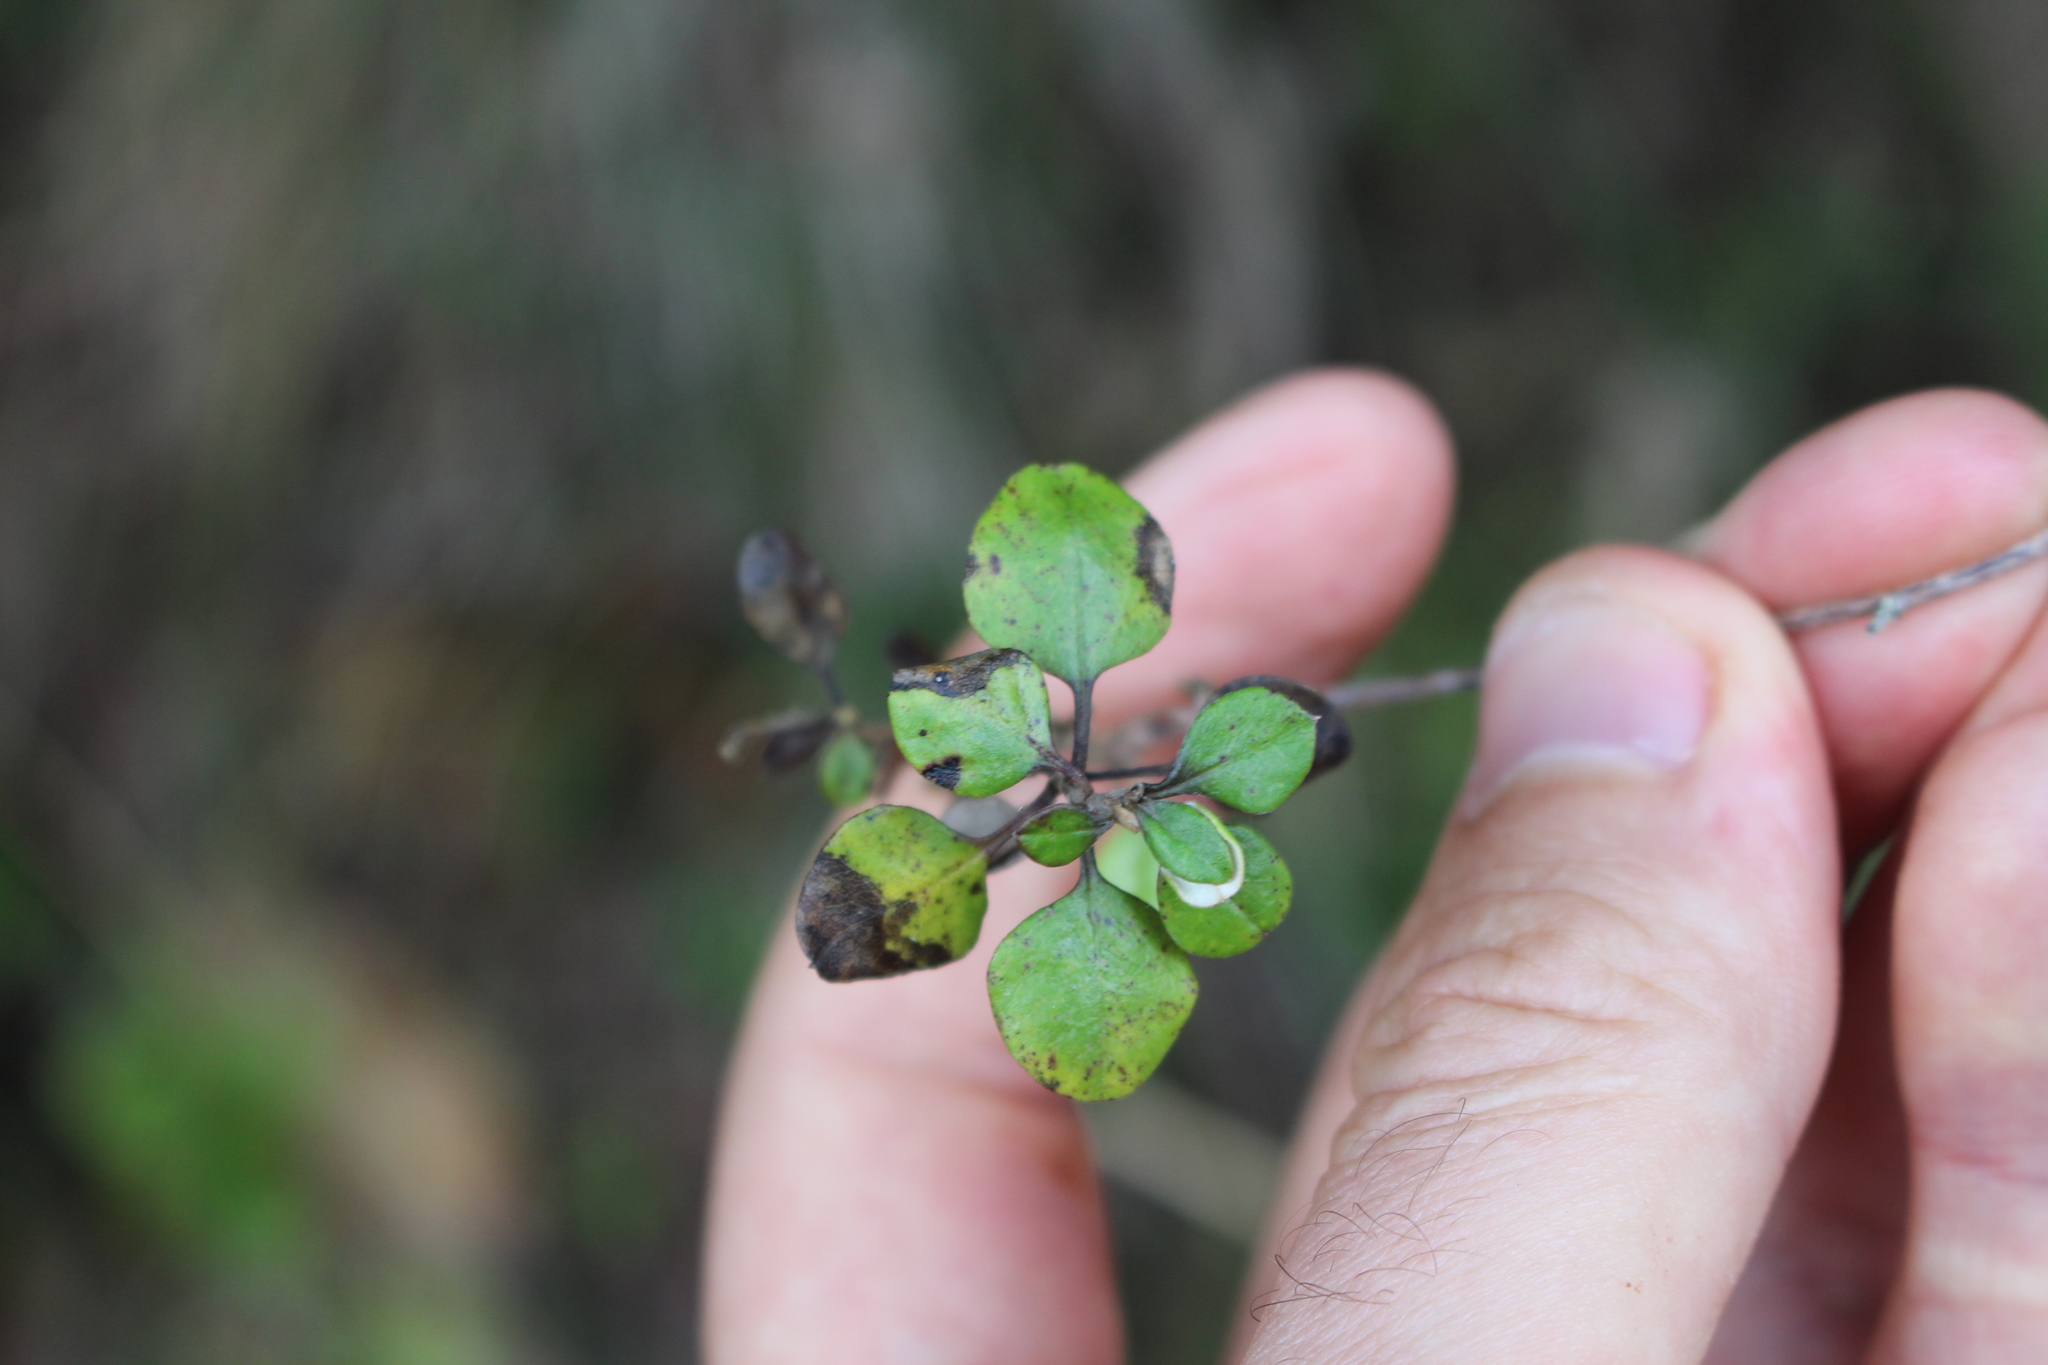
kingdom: Plantae
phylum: Tracheophyta
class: Magnoliopsida
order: Asterales
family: Asteraceae
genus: Ozothamnus
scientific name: Ozothamnus glomeratus
